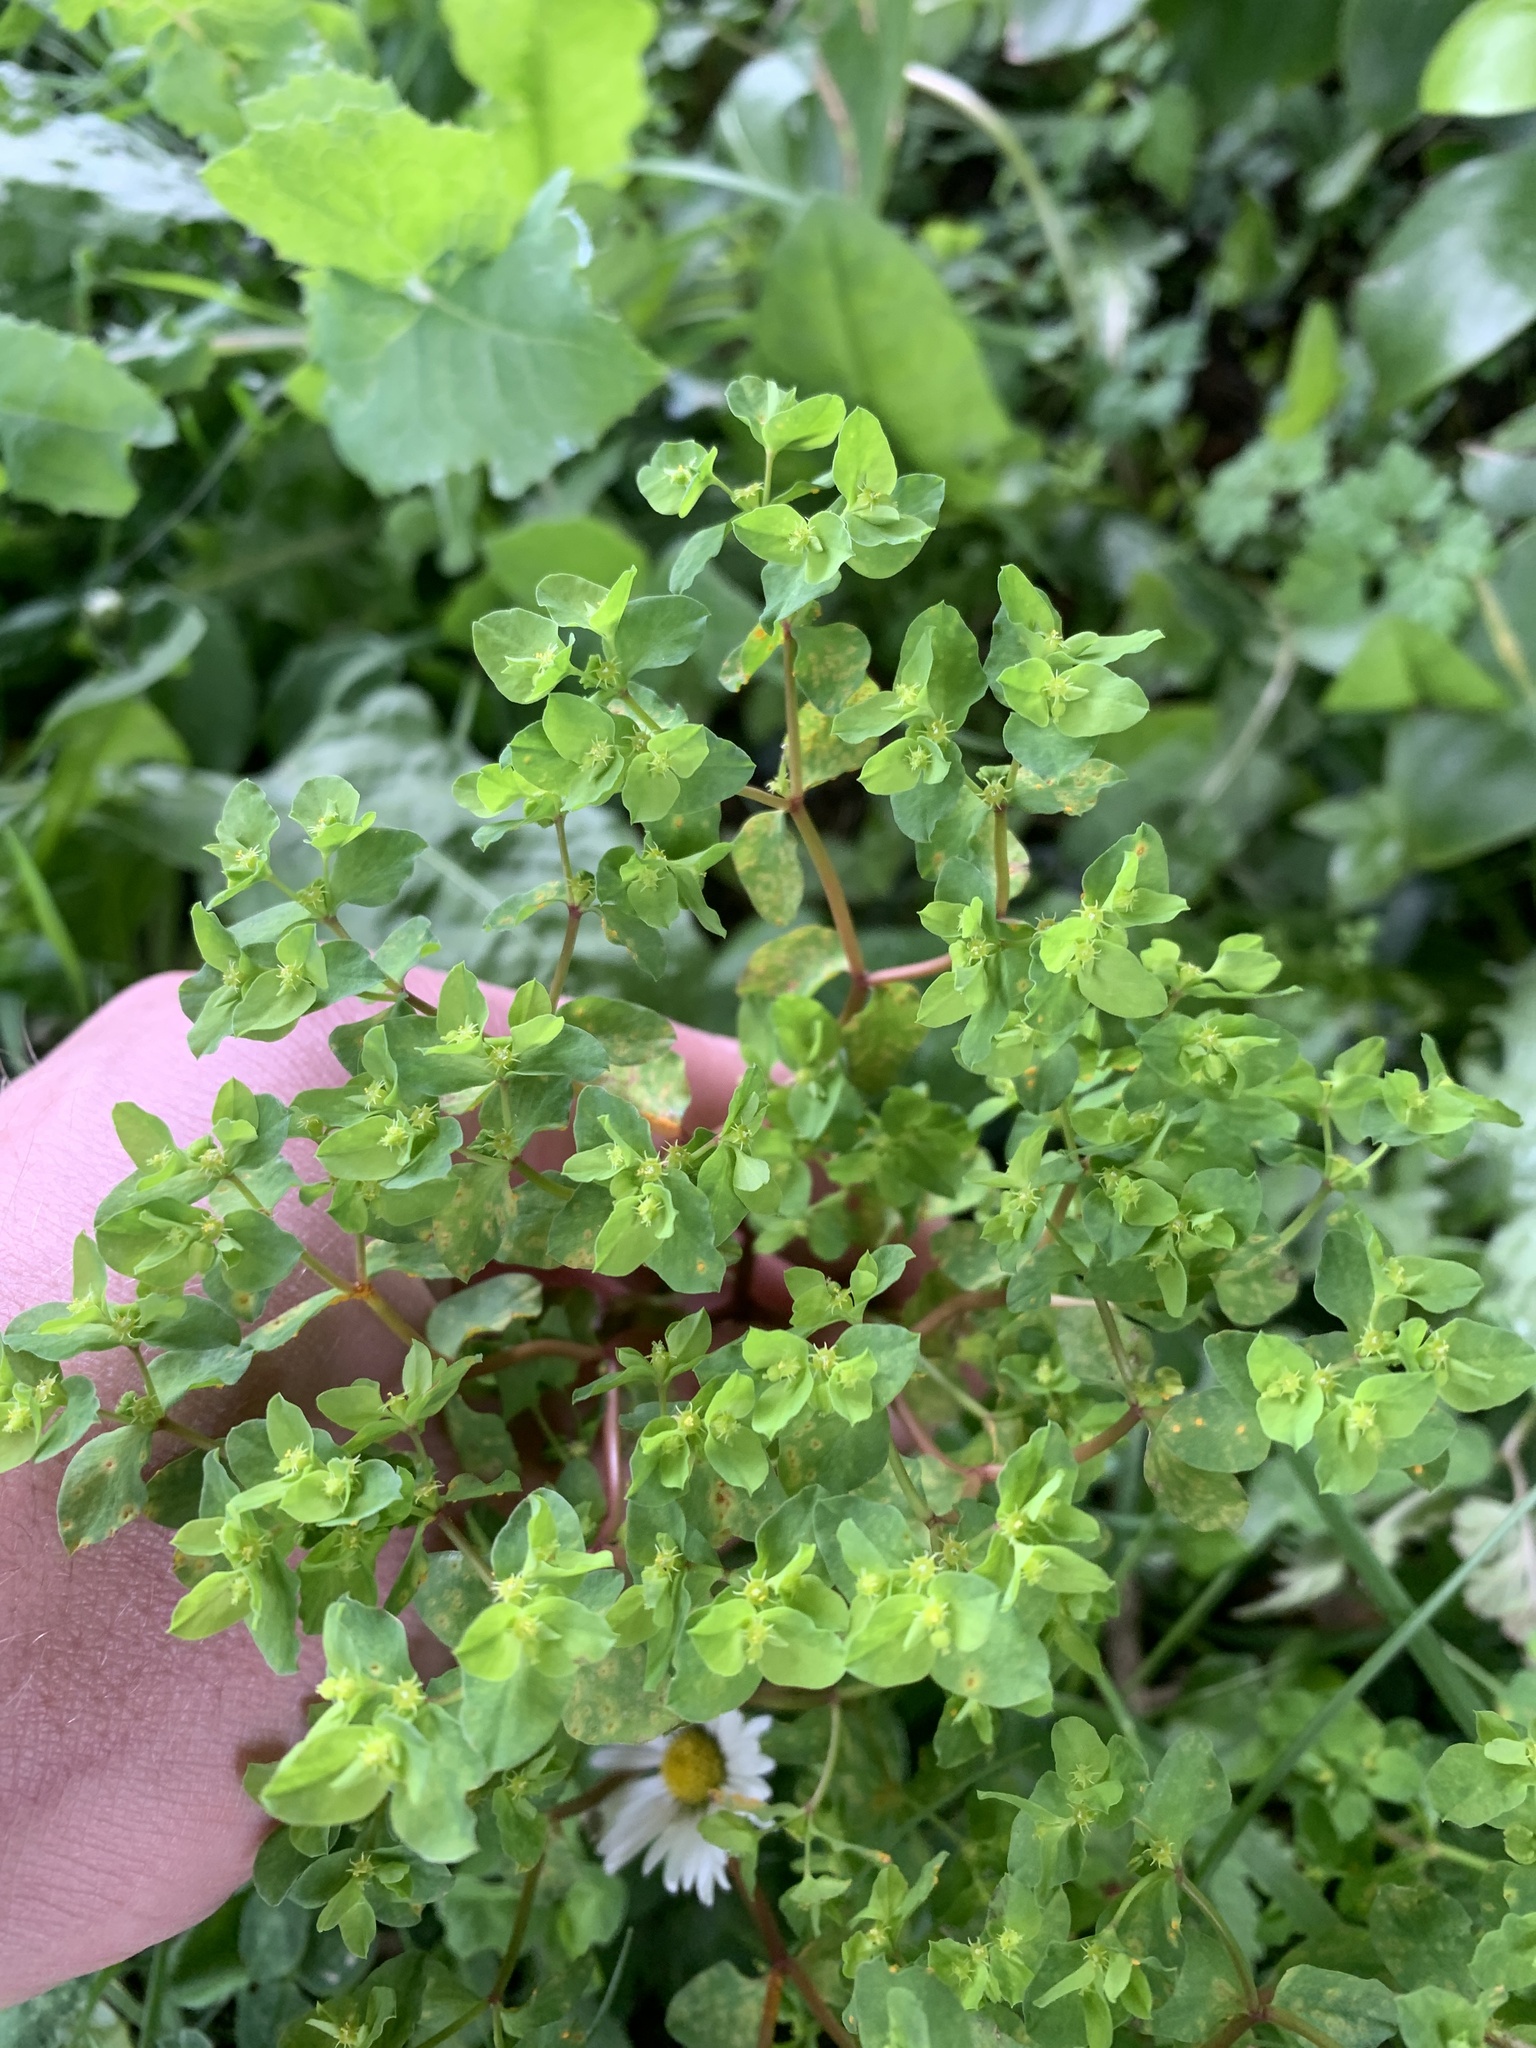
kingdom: Plantae
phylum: Tracheophyta
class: Magnoliopsida
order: Malpighiales
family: Euphorbiaceae
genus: Euphorbia
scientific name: Euphorbia helioscopia
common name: Sun spurge
